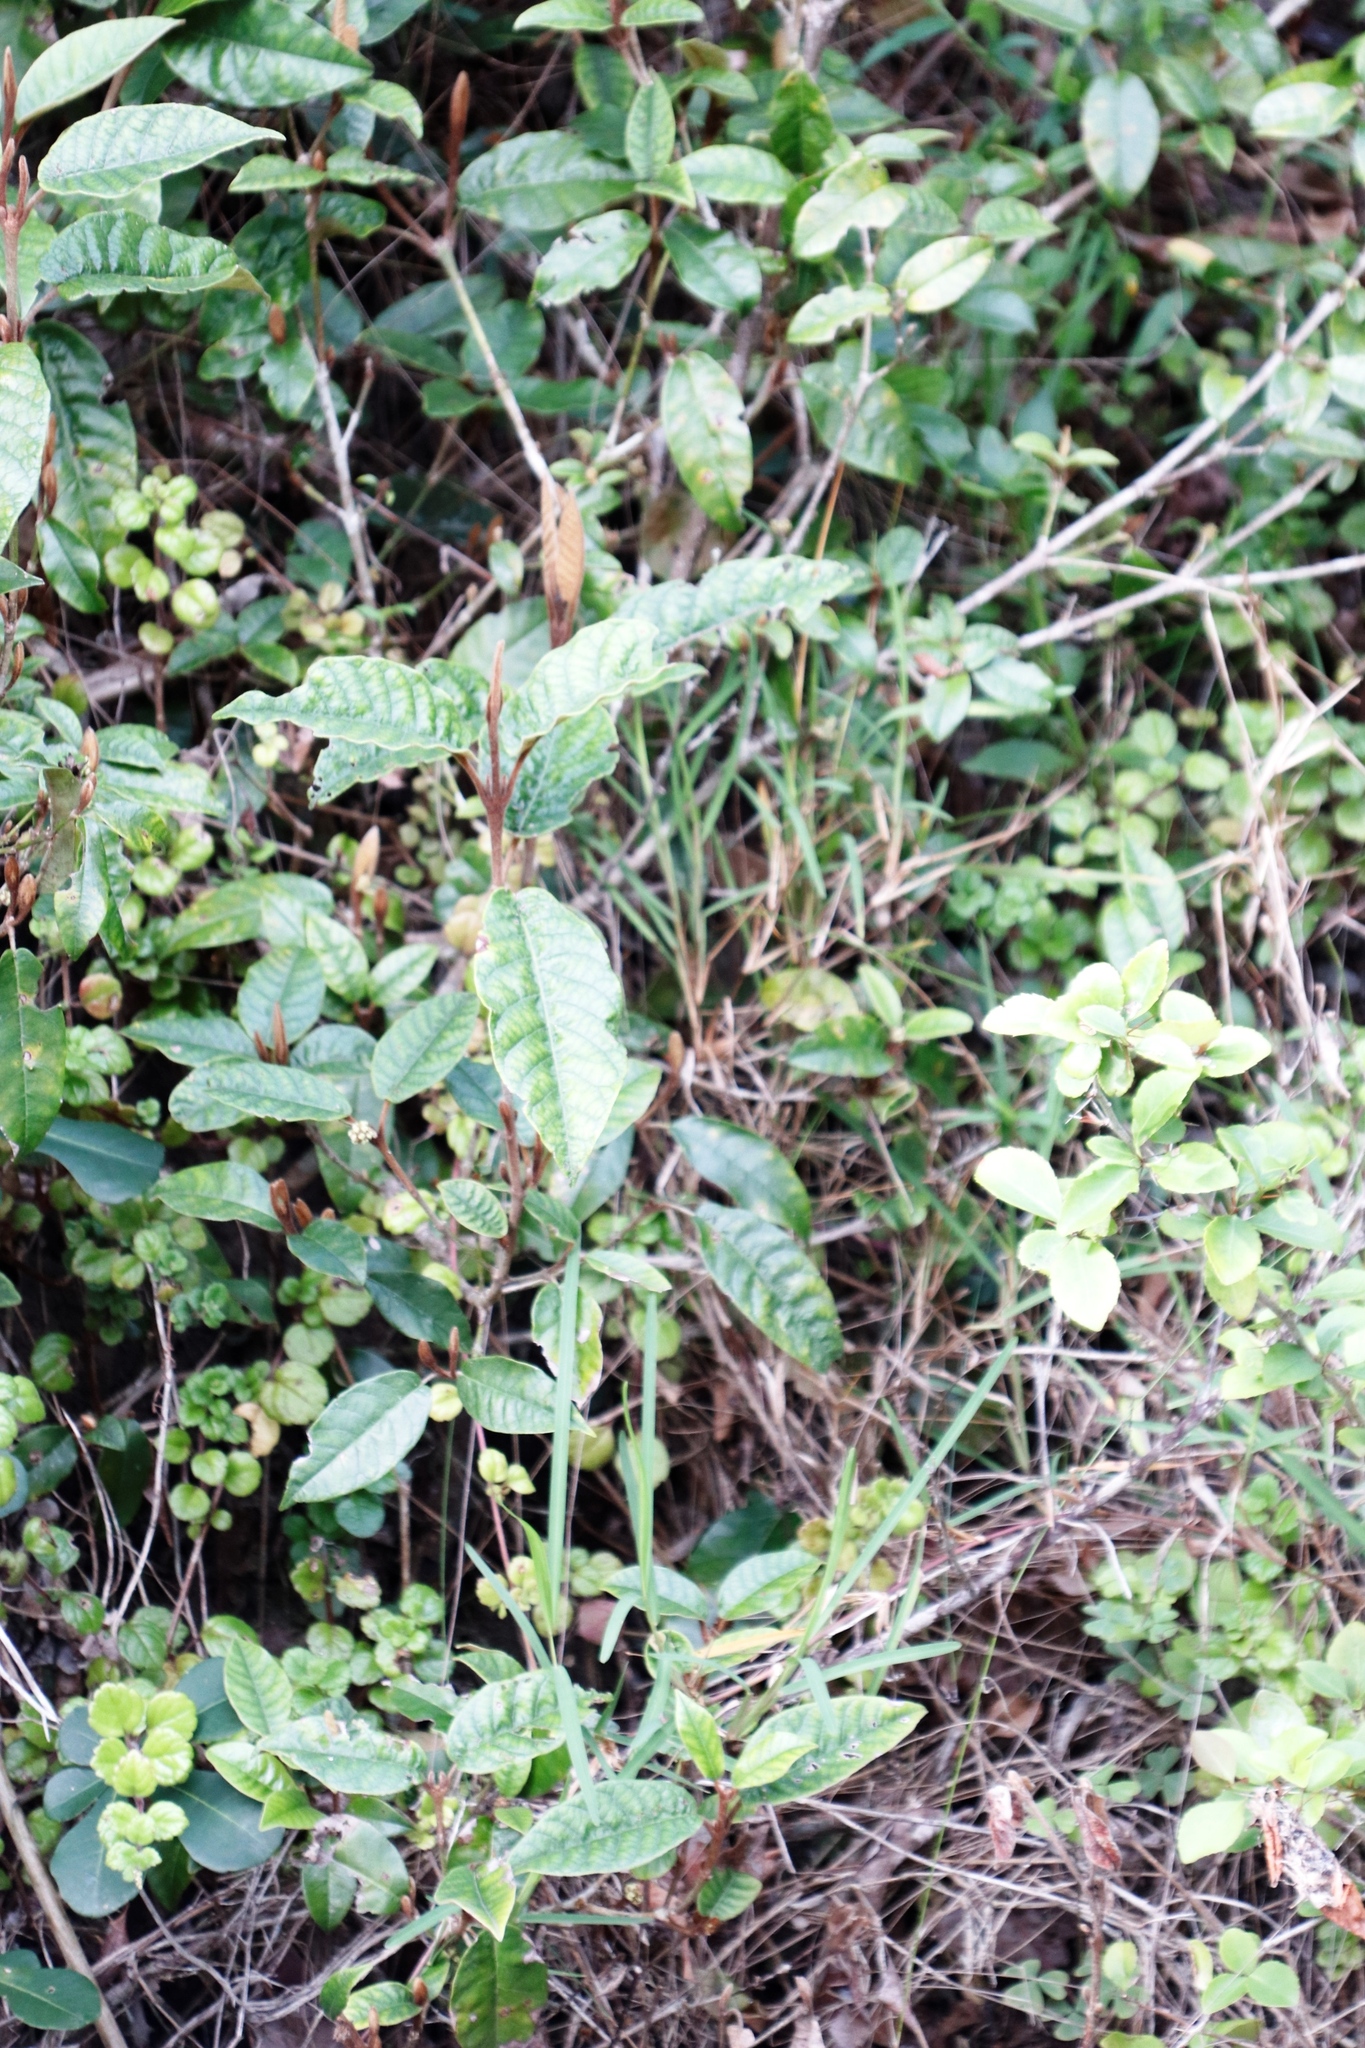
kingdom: Plantae
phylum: Tracheophyta
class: Magnoliopsida
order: Saxifragales
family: Hamamelidaceae
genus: Trichocladus
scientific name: Trichocladus crinitus
